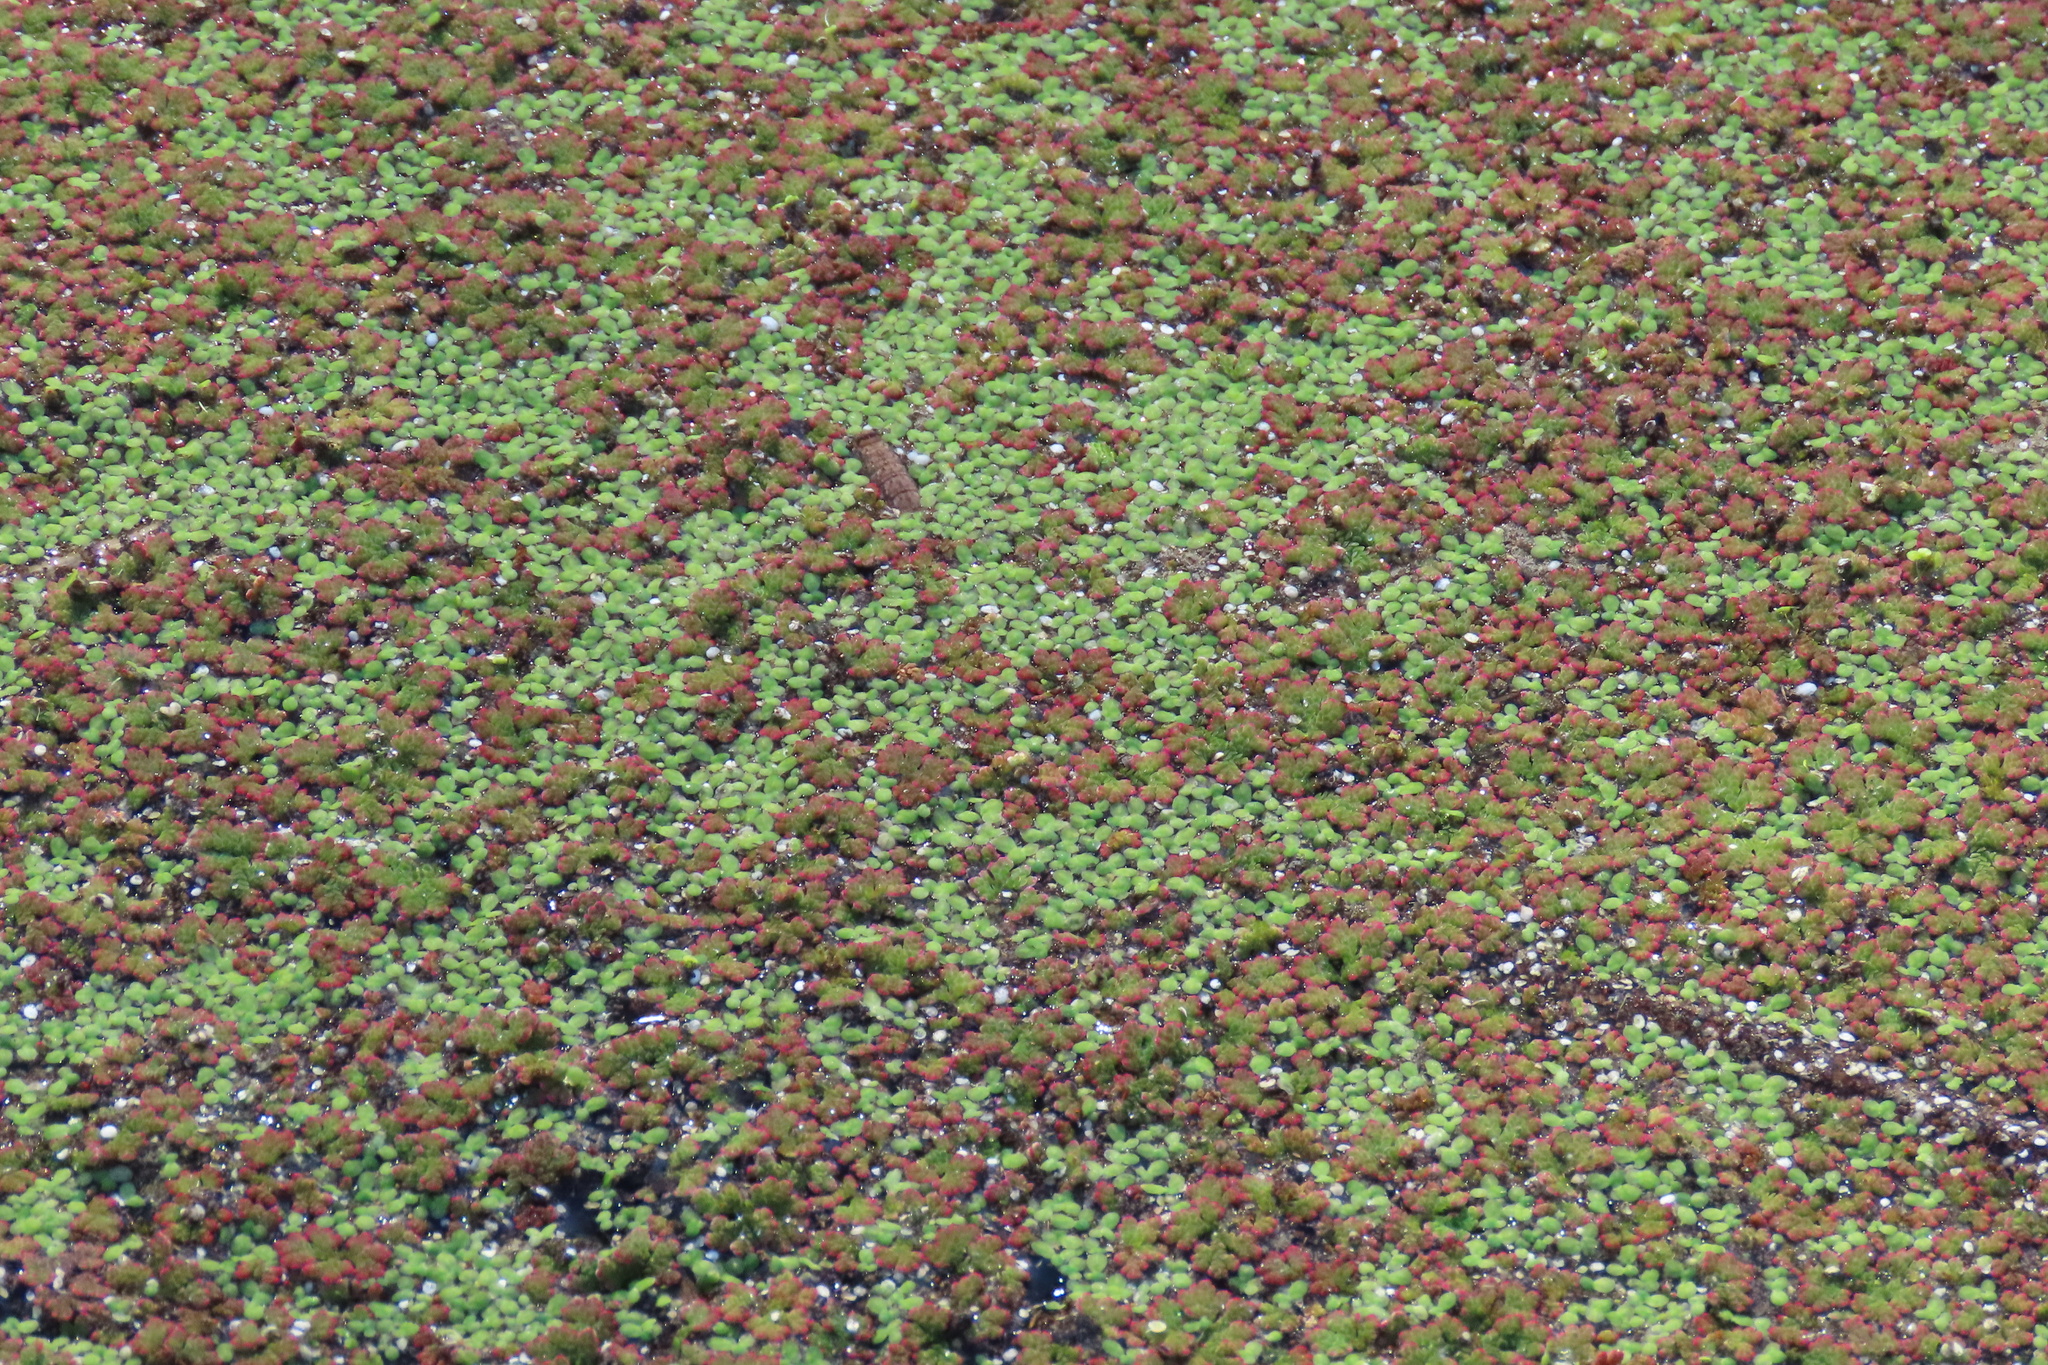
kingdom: Plantae
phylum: Tracheophyta
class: Liliopsida
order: Alismatales
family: Araceae
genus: Lemna
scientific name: Lemna minor
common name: Common duckweed
